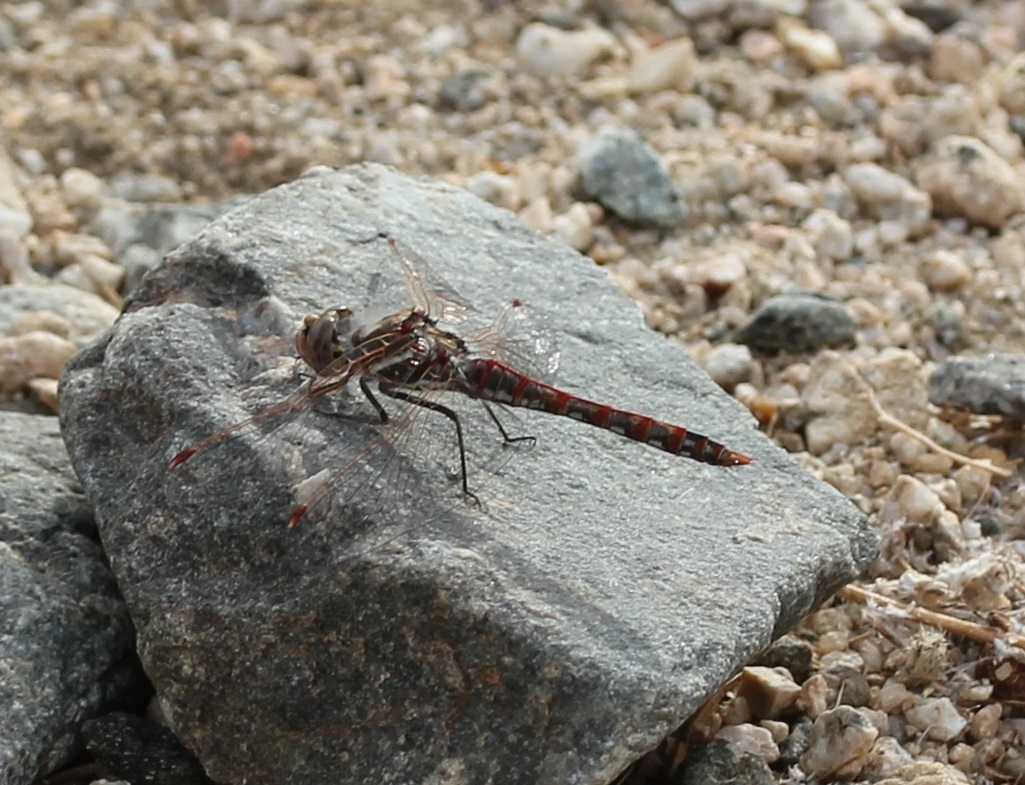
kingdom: Animalia
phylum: Arthropoda
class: Insecta
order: Odonata
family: Libellulidae
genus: Sympetrum
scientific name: Sympetrum corruptum
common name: Variegated meadowhawk
